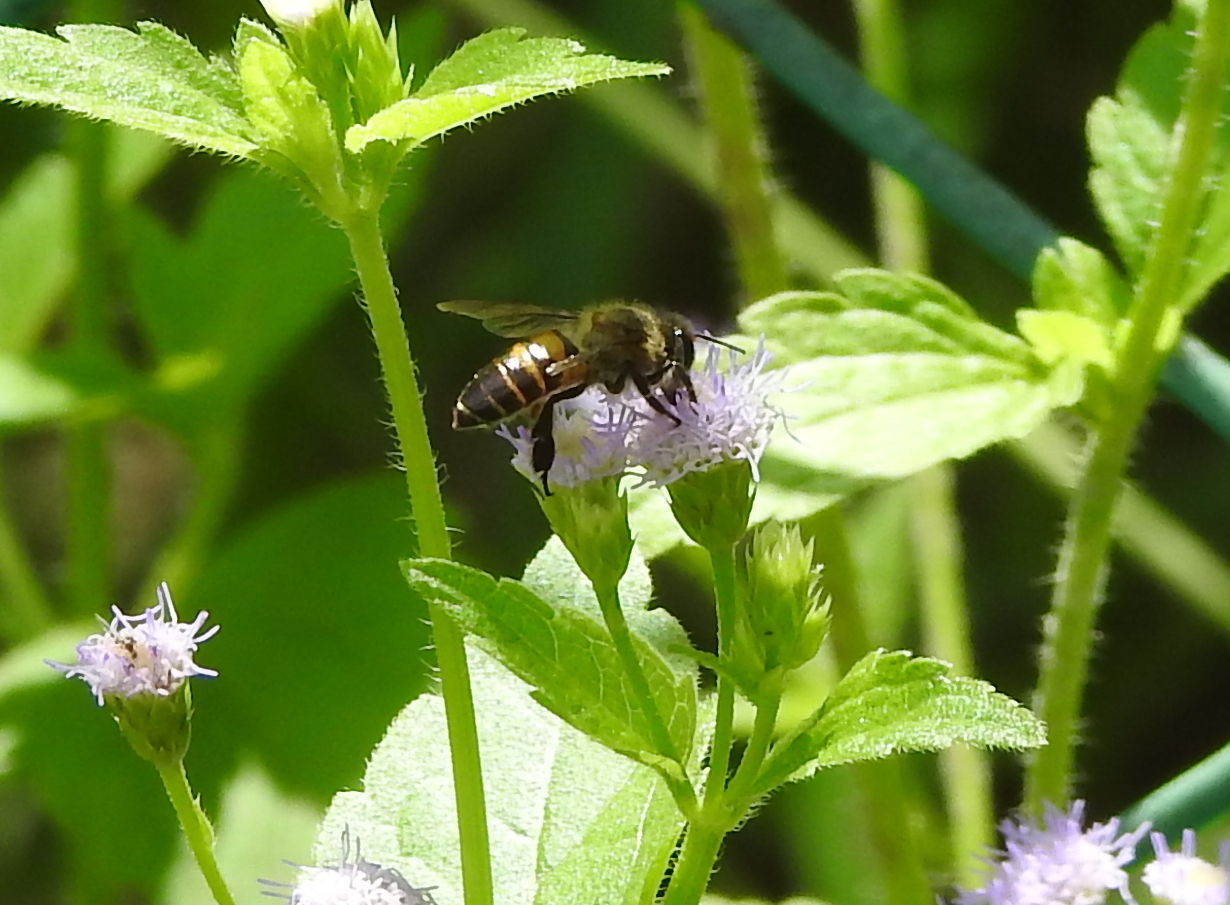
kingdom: Animalia
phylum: Arthropoda
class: Insecta
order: Hymenoptera
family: Apidae
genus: Apis
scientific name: Apis cerana
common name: Honey bee
